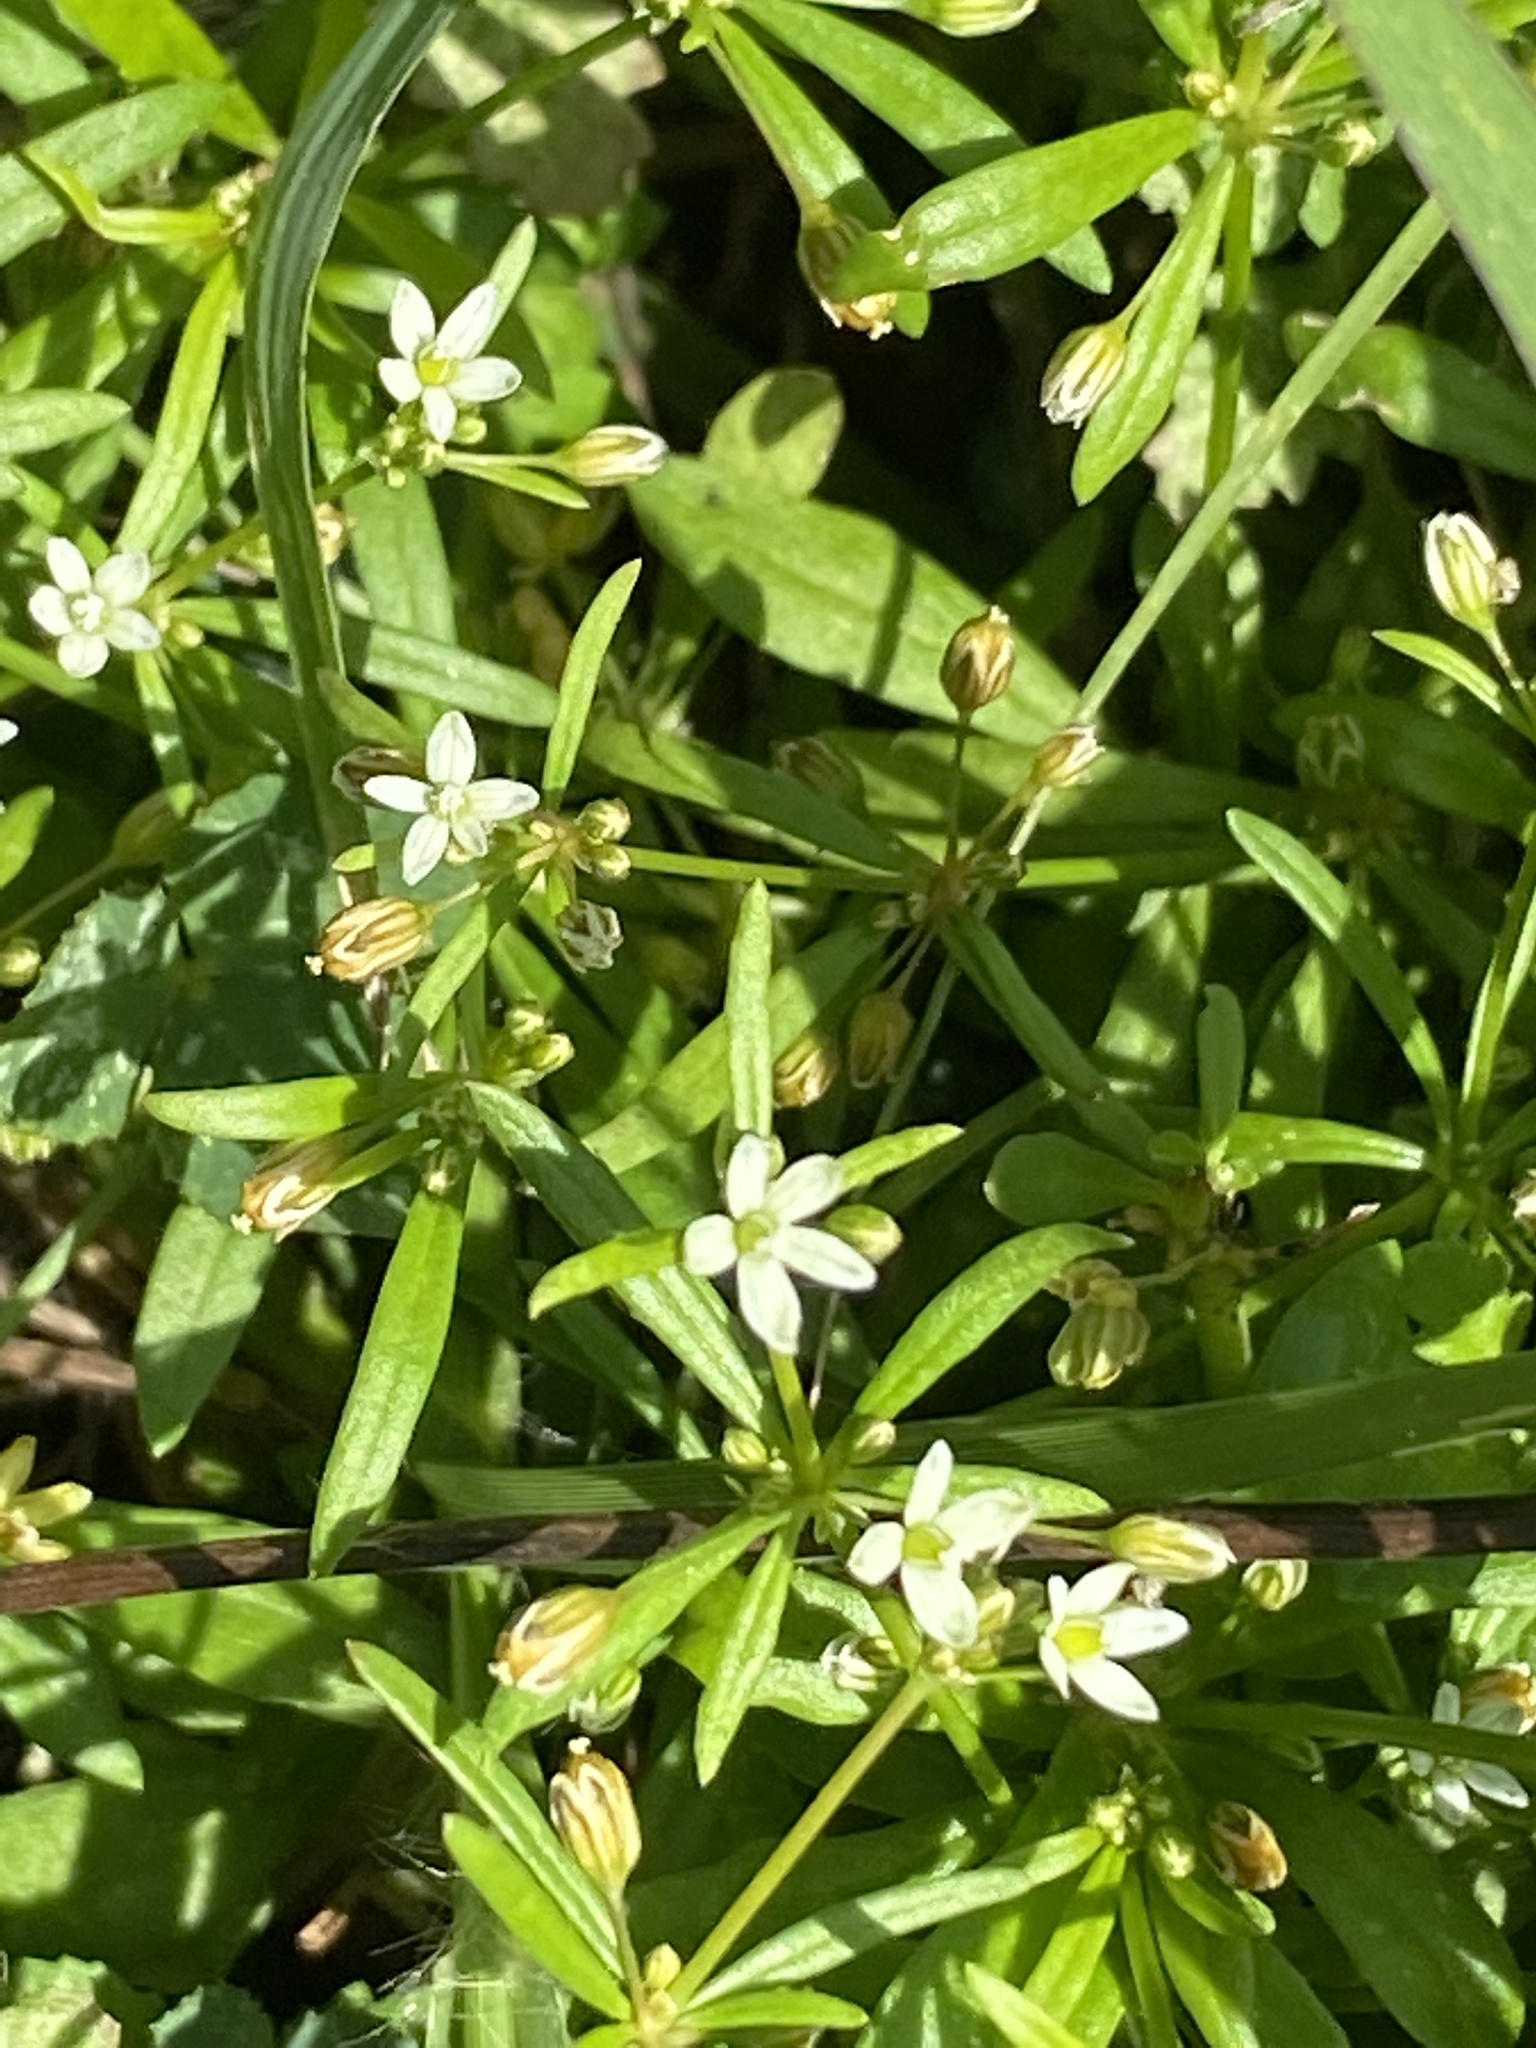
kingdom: Plantae
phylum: Tracheophyta
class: Magnoliopsida
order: Caryophyllales
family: Molluginaceae
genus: Mollugo
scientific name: Mollugo verticillata
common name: Green carpetweed
